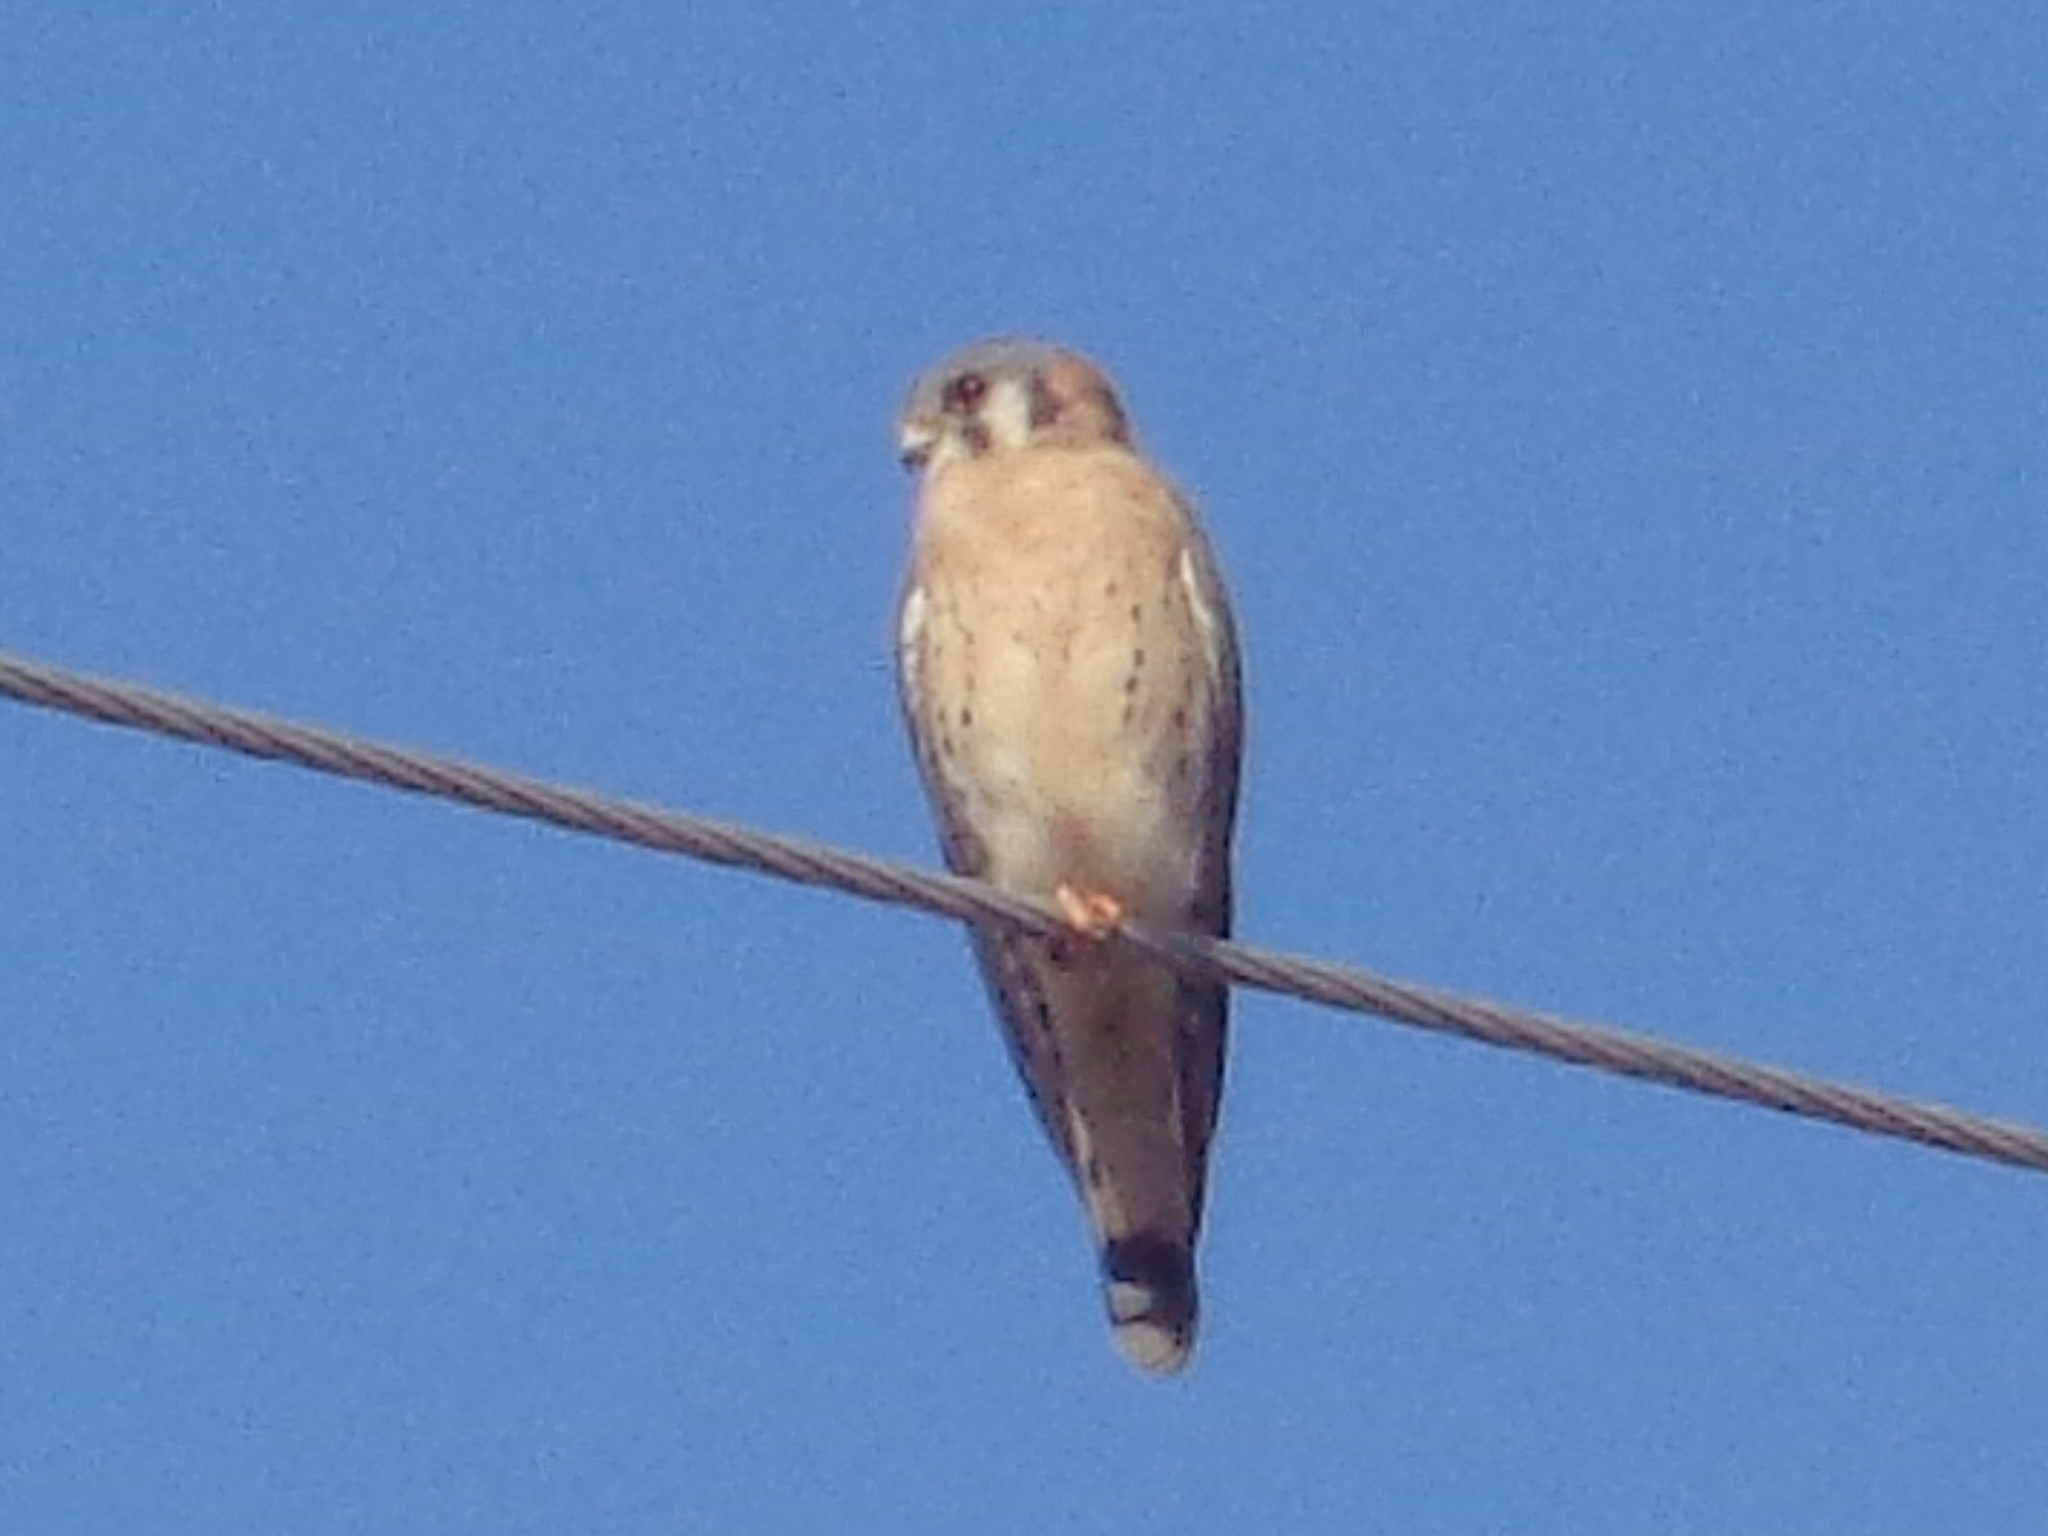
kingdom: Animalia
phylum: Chordata
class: Aves
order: Falconiformes
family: Falconidae
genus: Falco
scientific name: Falco sparverius
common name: American kestrel
